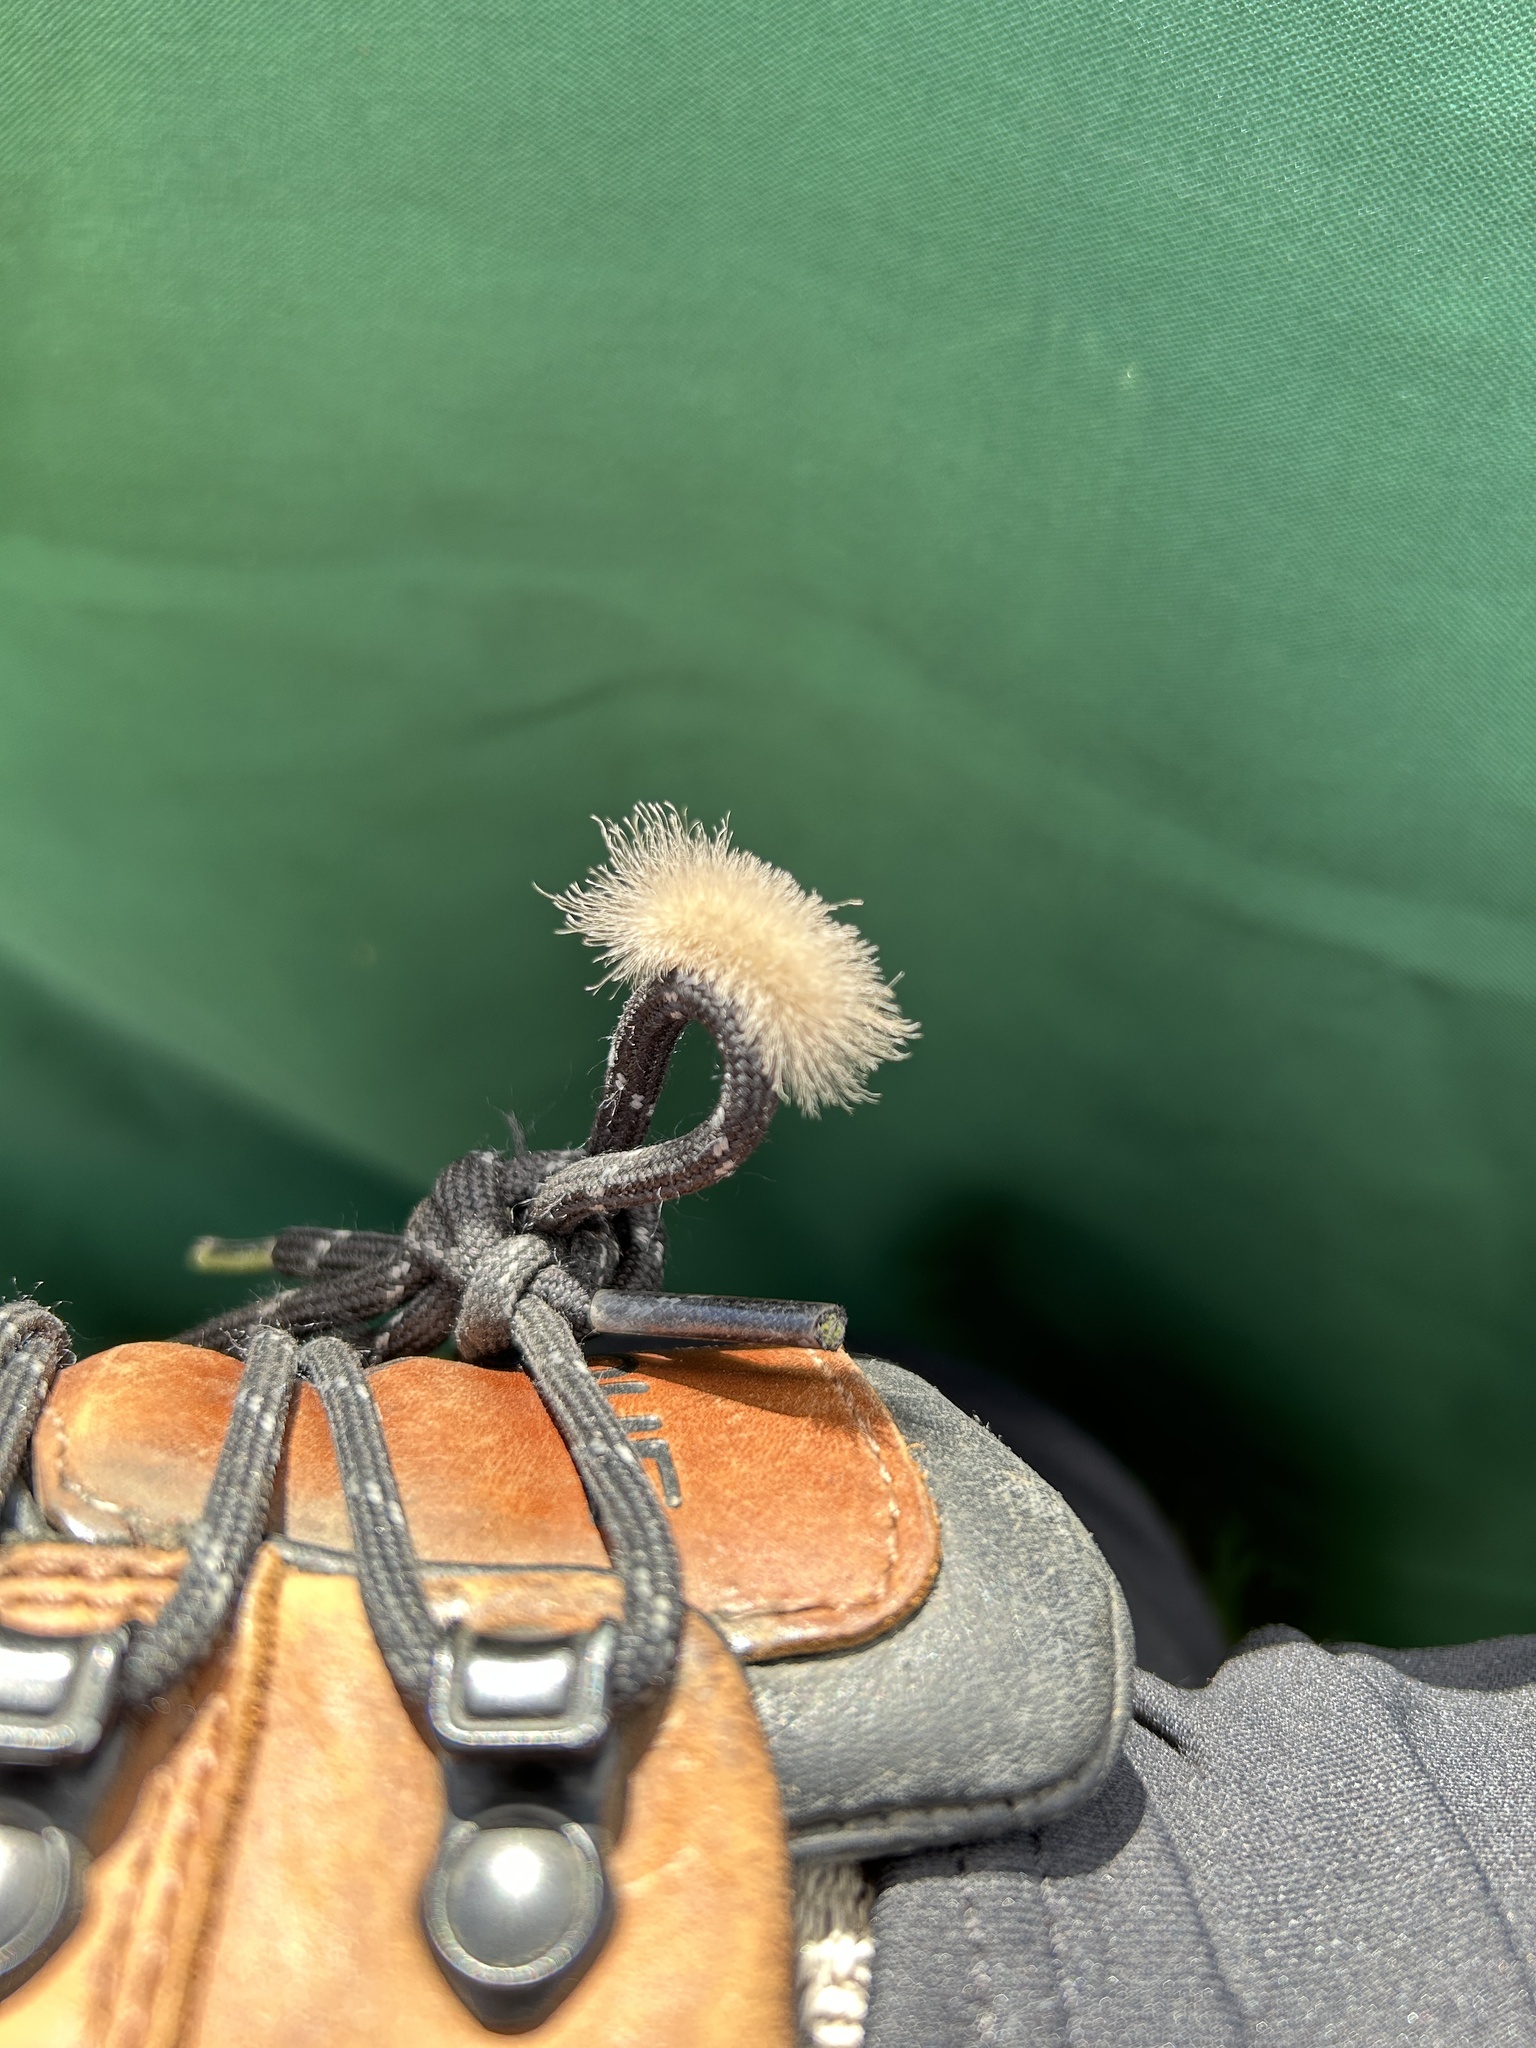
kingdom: Animalia
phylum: Arthropoda
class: Insecta
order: Lepidoptera
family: Erebidae
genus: Cycnia
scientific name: Cycnia tenera
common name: Delicate cycnia moth
